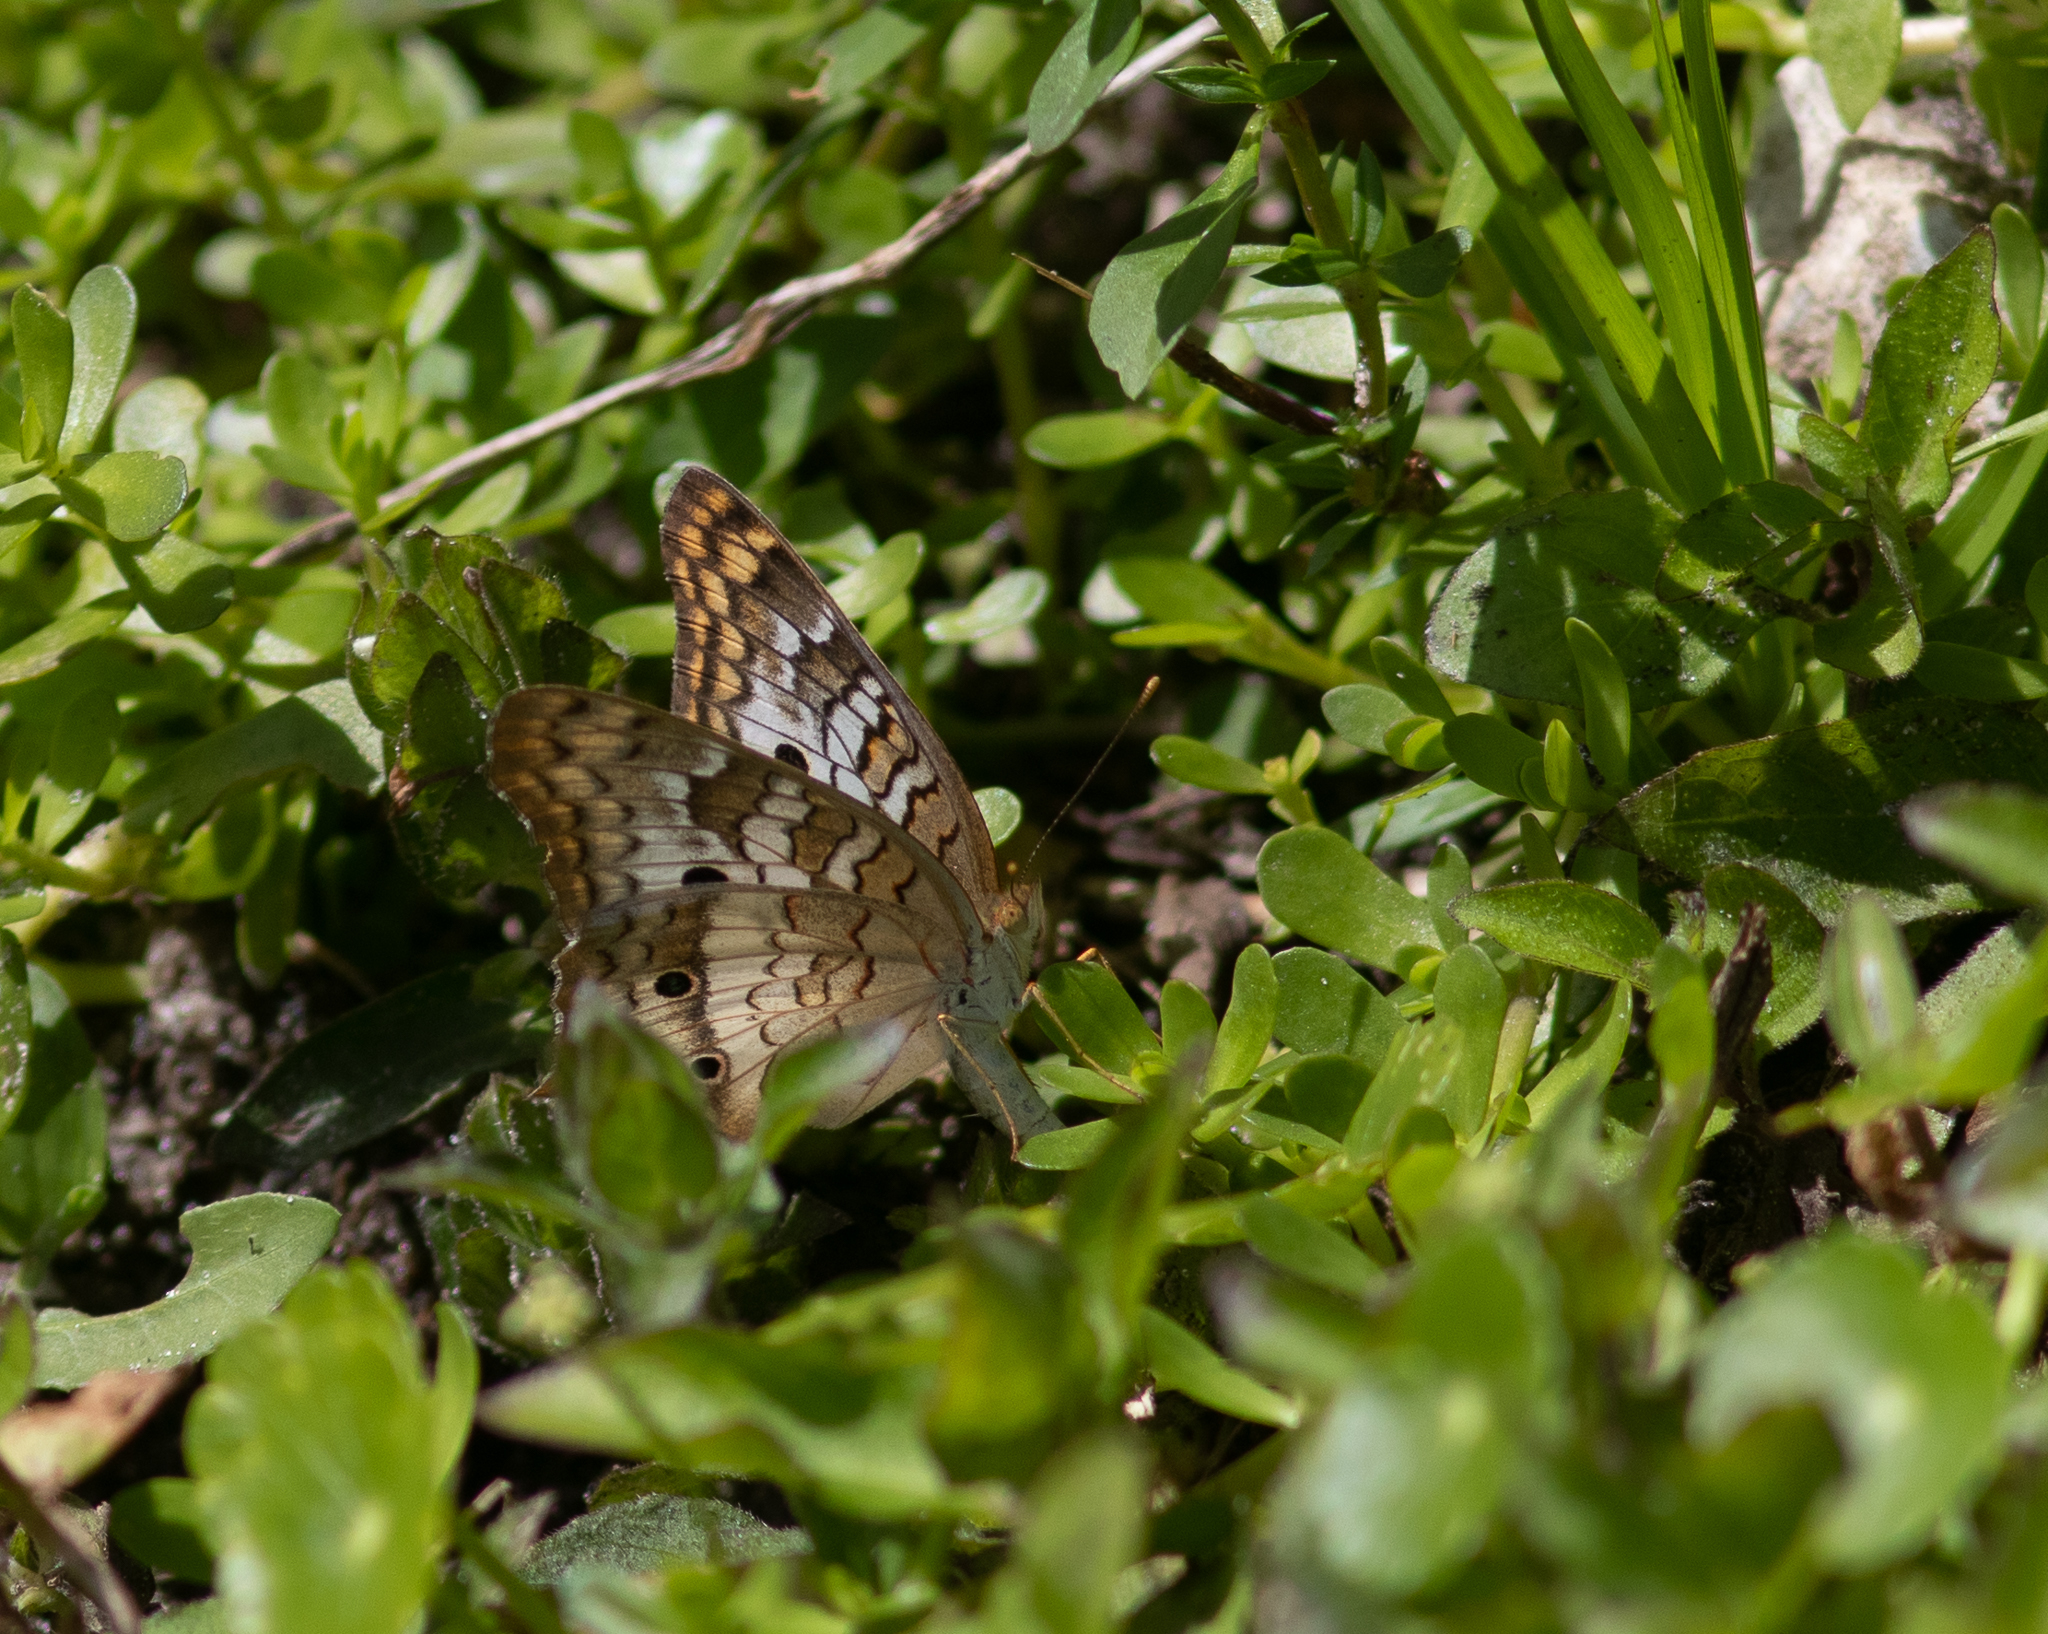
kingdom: Animalia
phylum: Arthropoda
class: Insecta
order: Lepidoptera
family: Nymphalidae
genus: Anartia
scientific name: Anartia jatrophae
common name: White peacock
